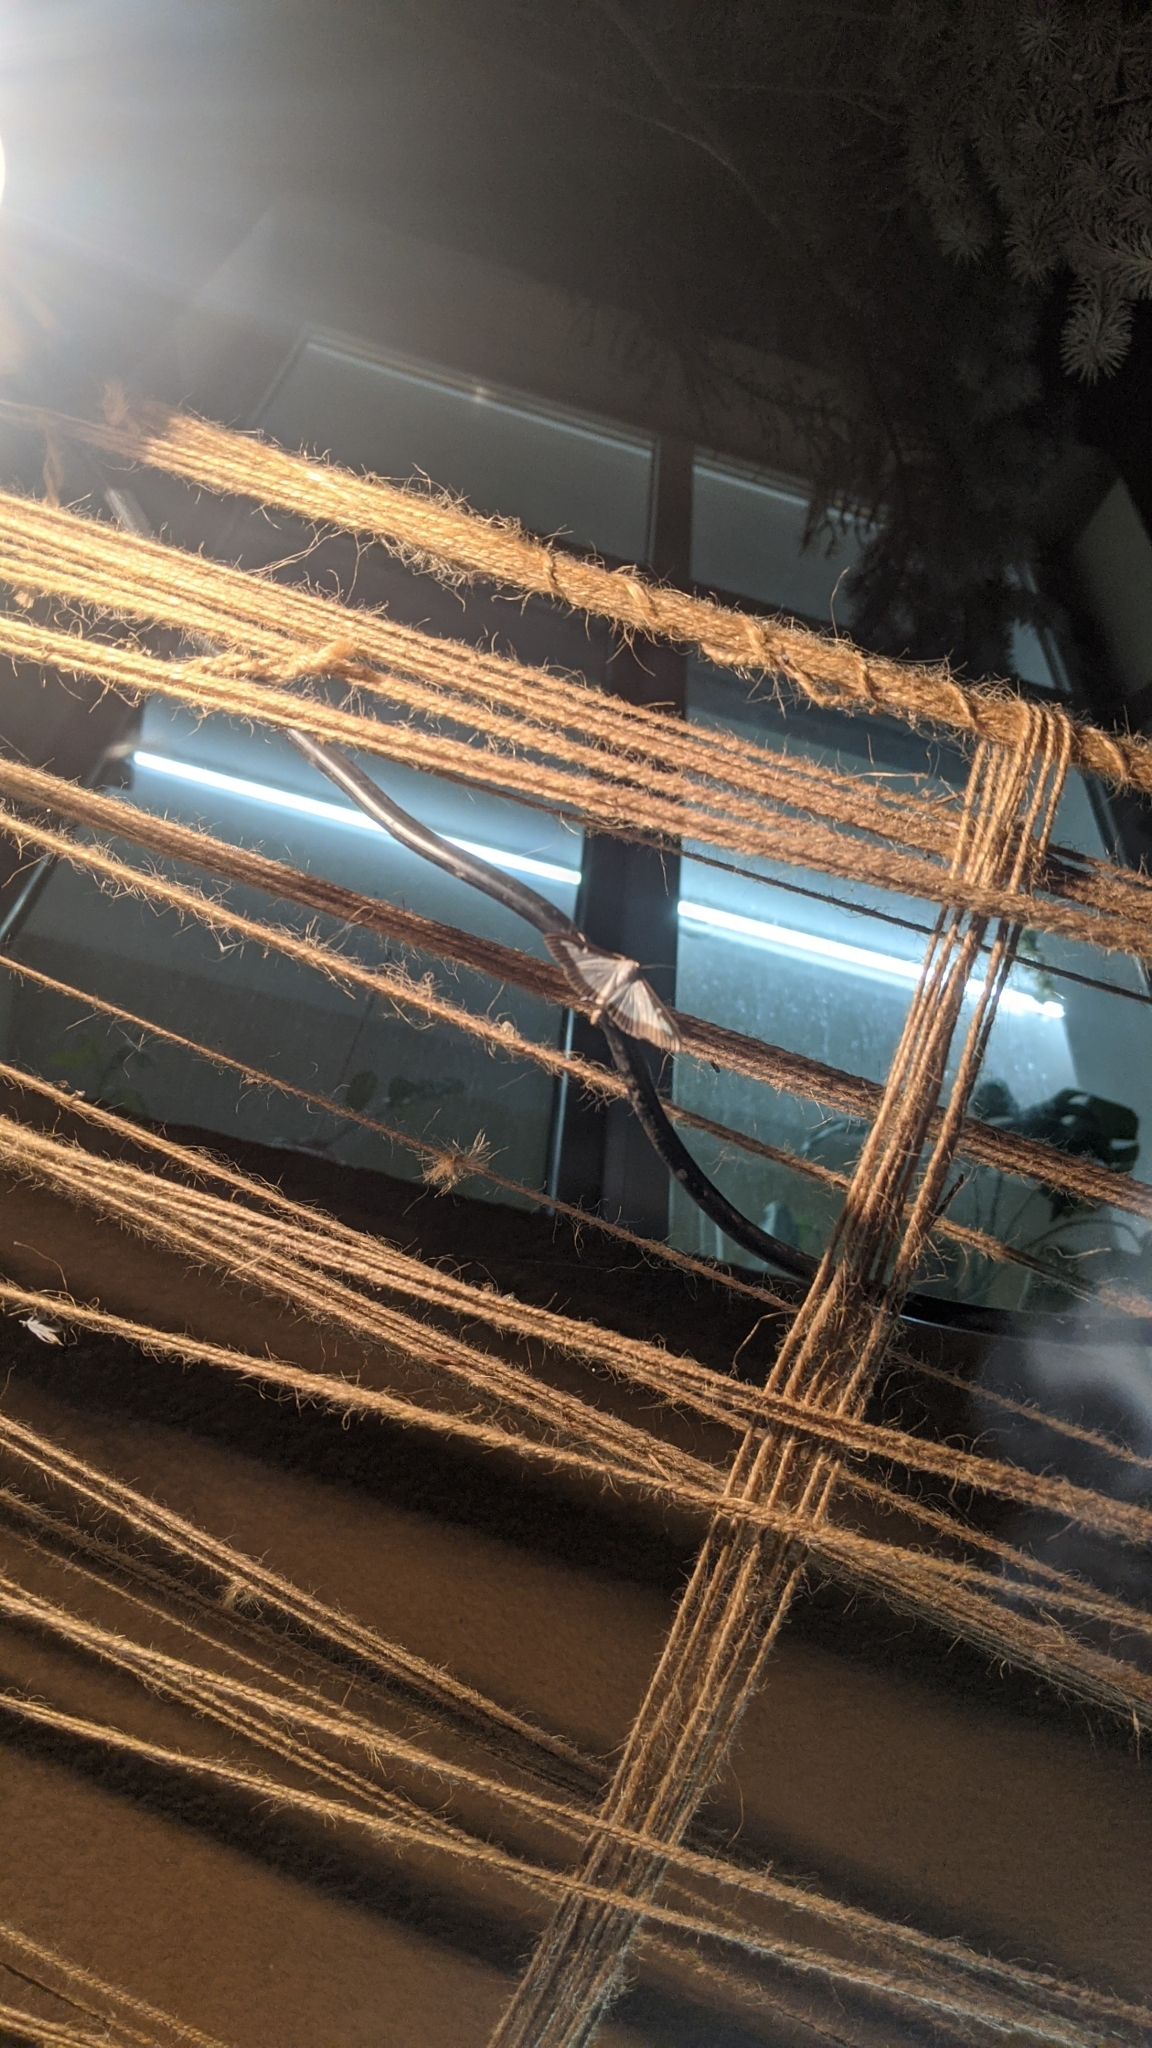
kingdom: Animalia
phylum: Arthropoda
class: Insecta
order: Lepidoptera
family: Crambidae
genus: Cydalima
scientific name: Cydalima perspectalis
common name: Box tree moth
